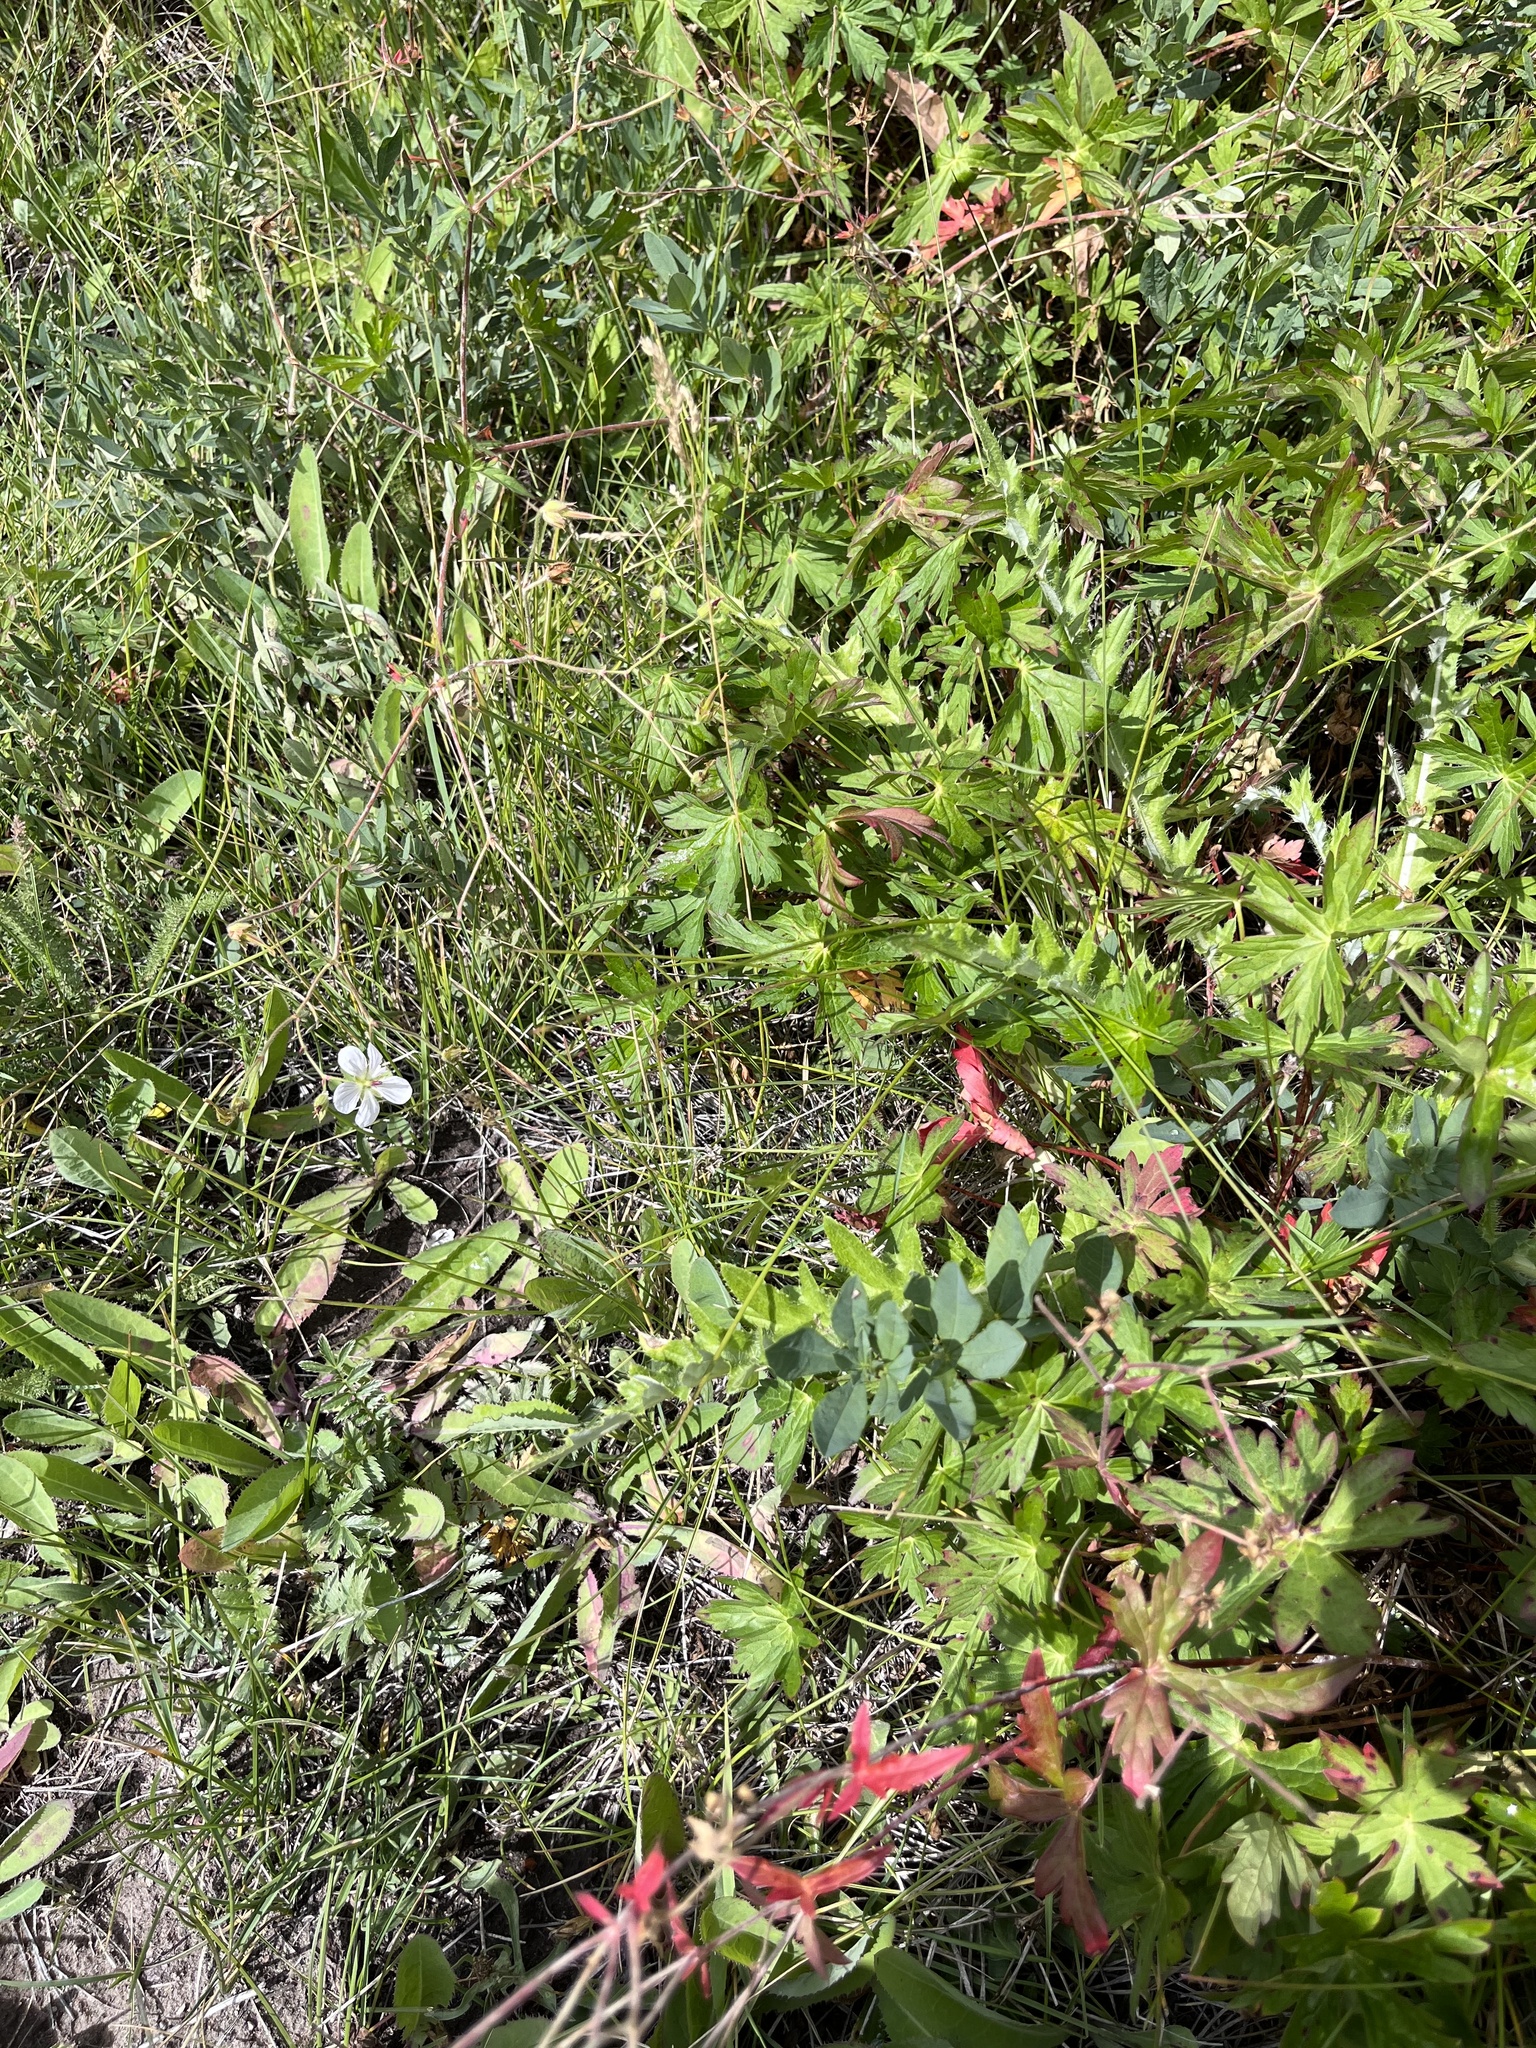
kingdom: Plantae
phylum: Tracheophyta
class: Magnoliopsida
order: Geraniales
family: Geraniaceae
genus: Geranium
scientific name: Geranium richardsonii
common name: Richardson's crane's-bill
